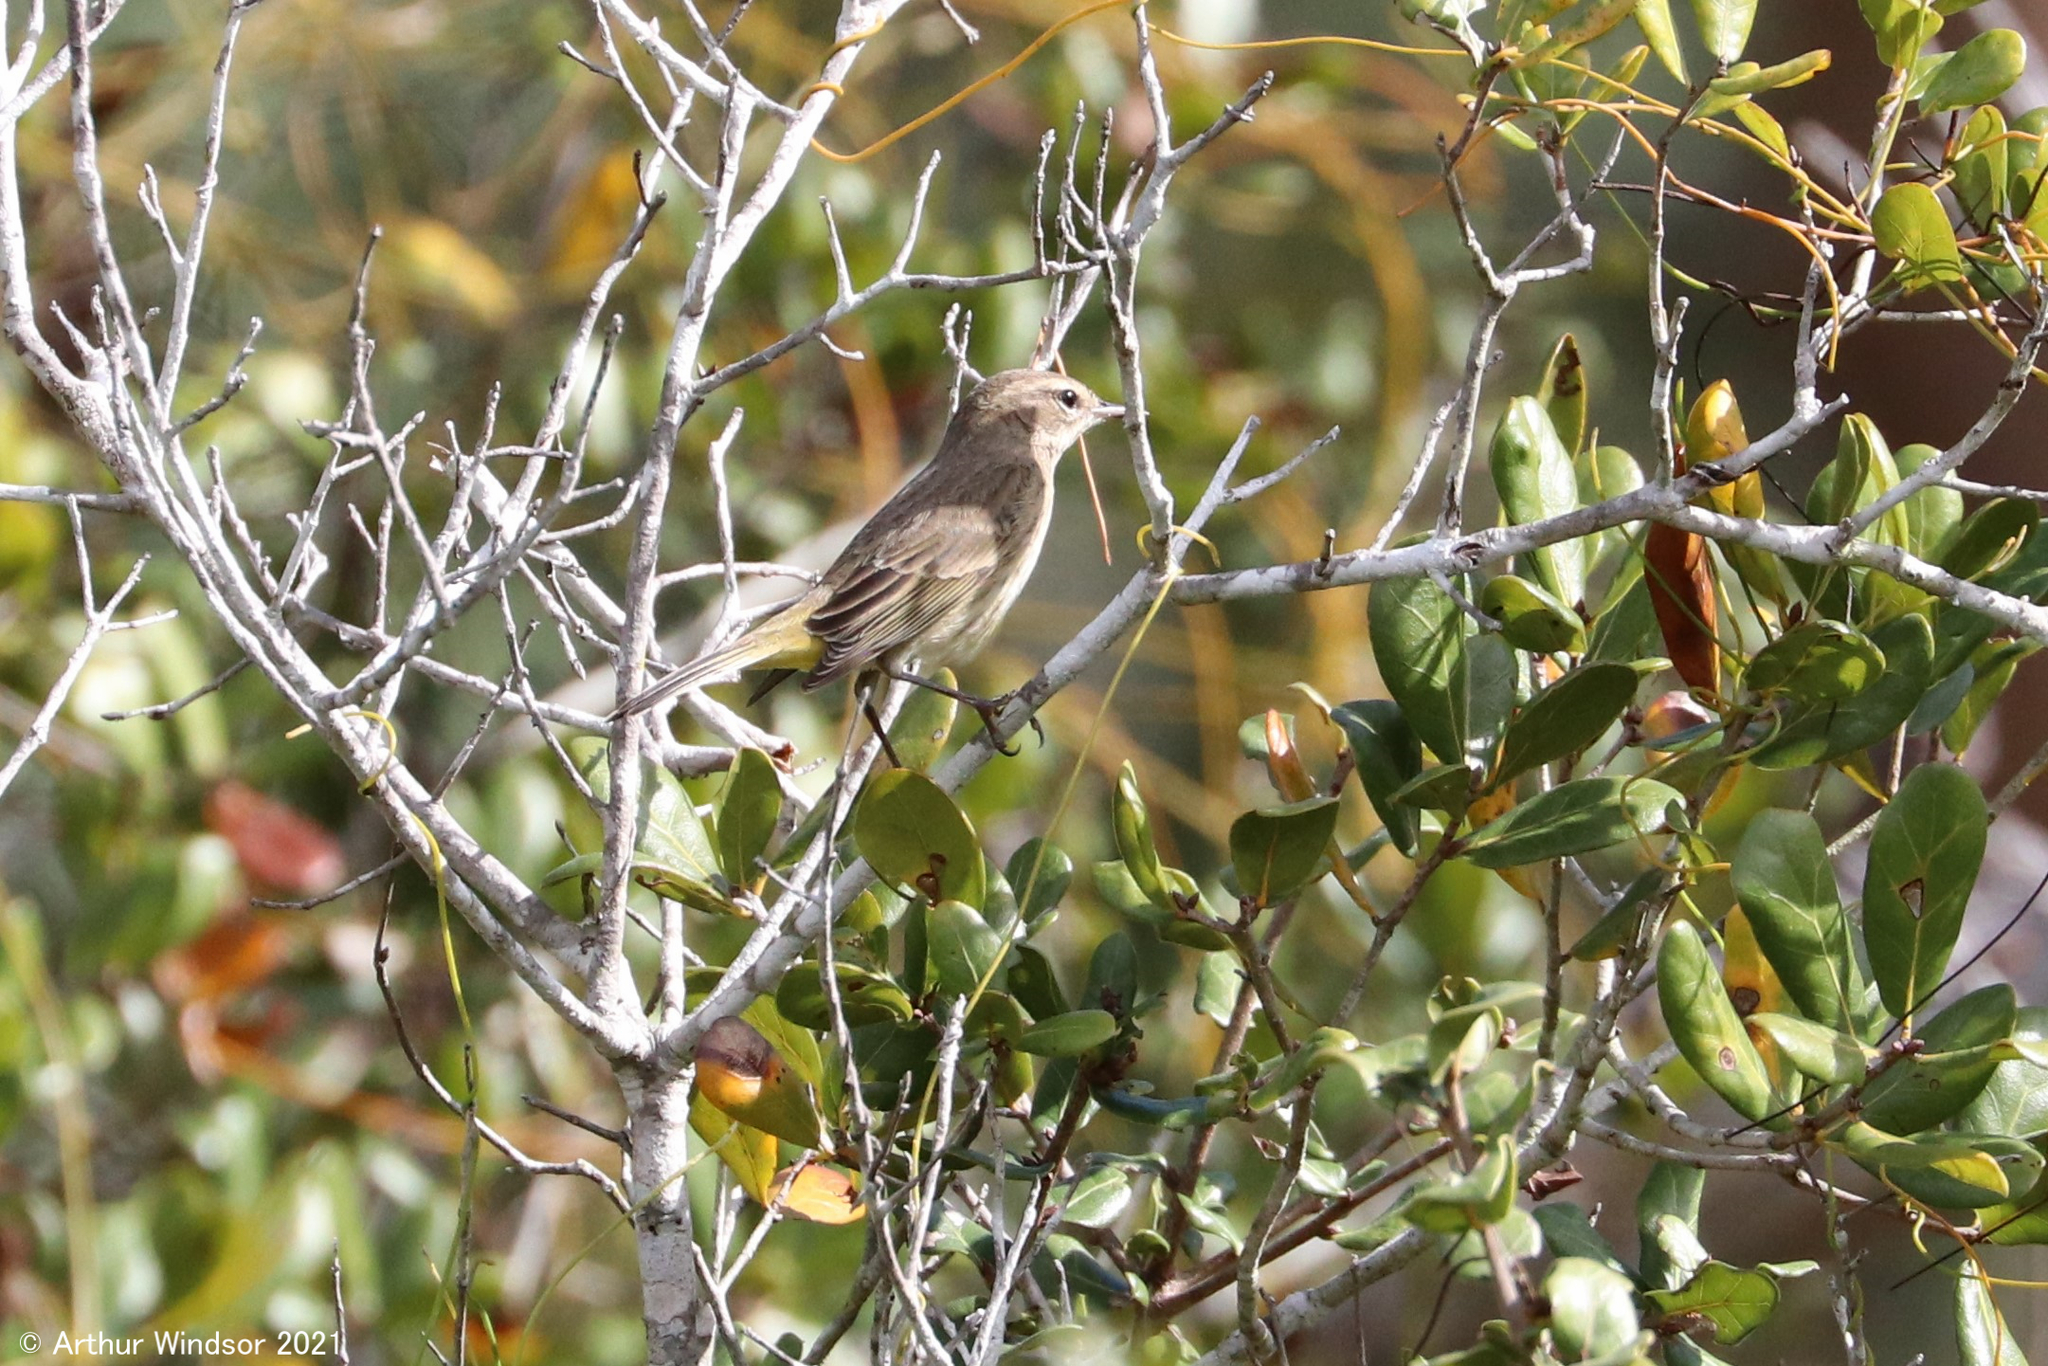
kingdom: Animalia
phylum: Chordata
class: Aves
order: Passeriformes
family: Parulidae
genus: Setophaga
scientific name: Setophaga palmarum
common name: Palm warbler
